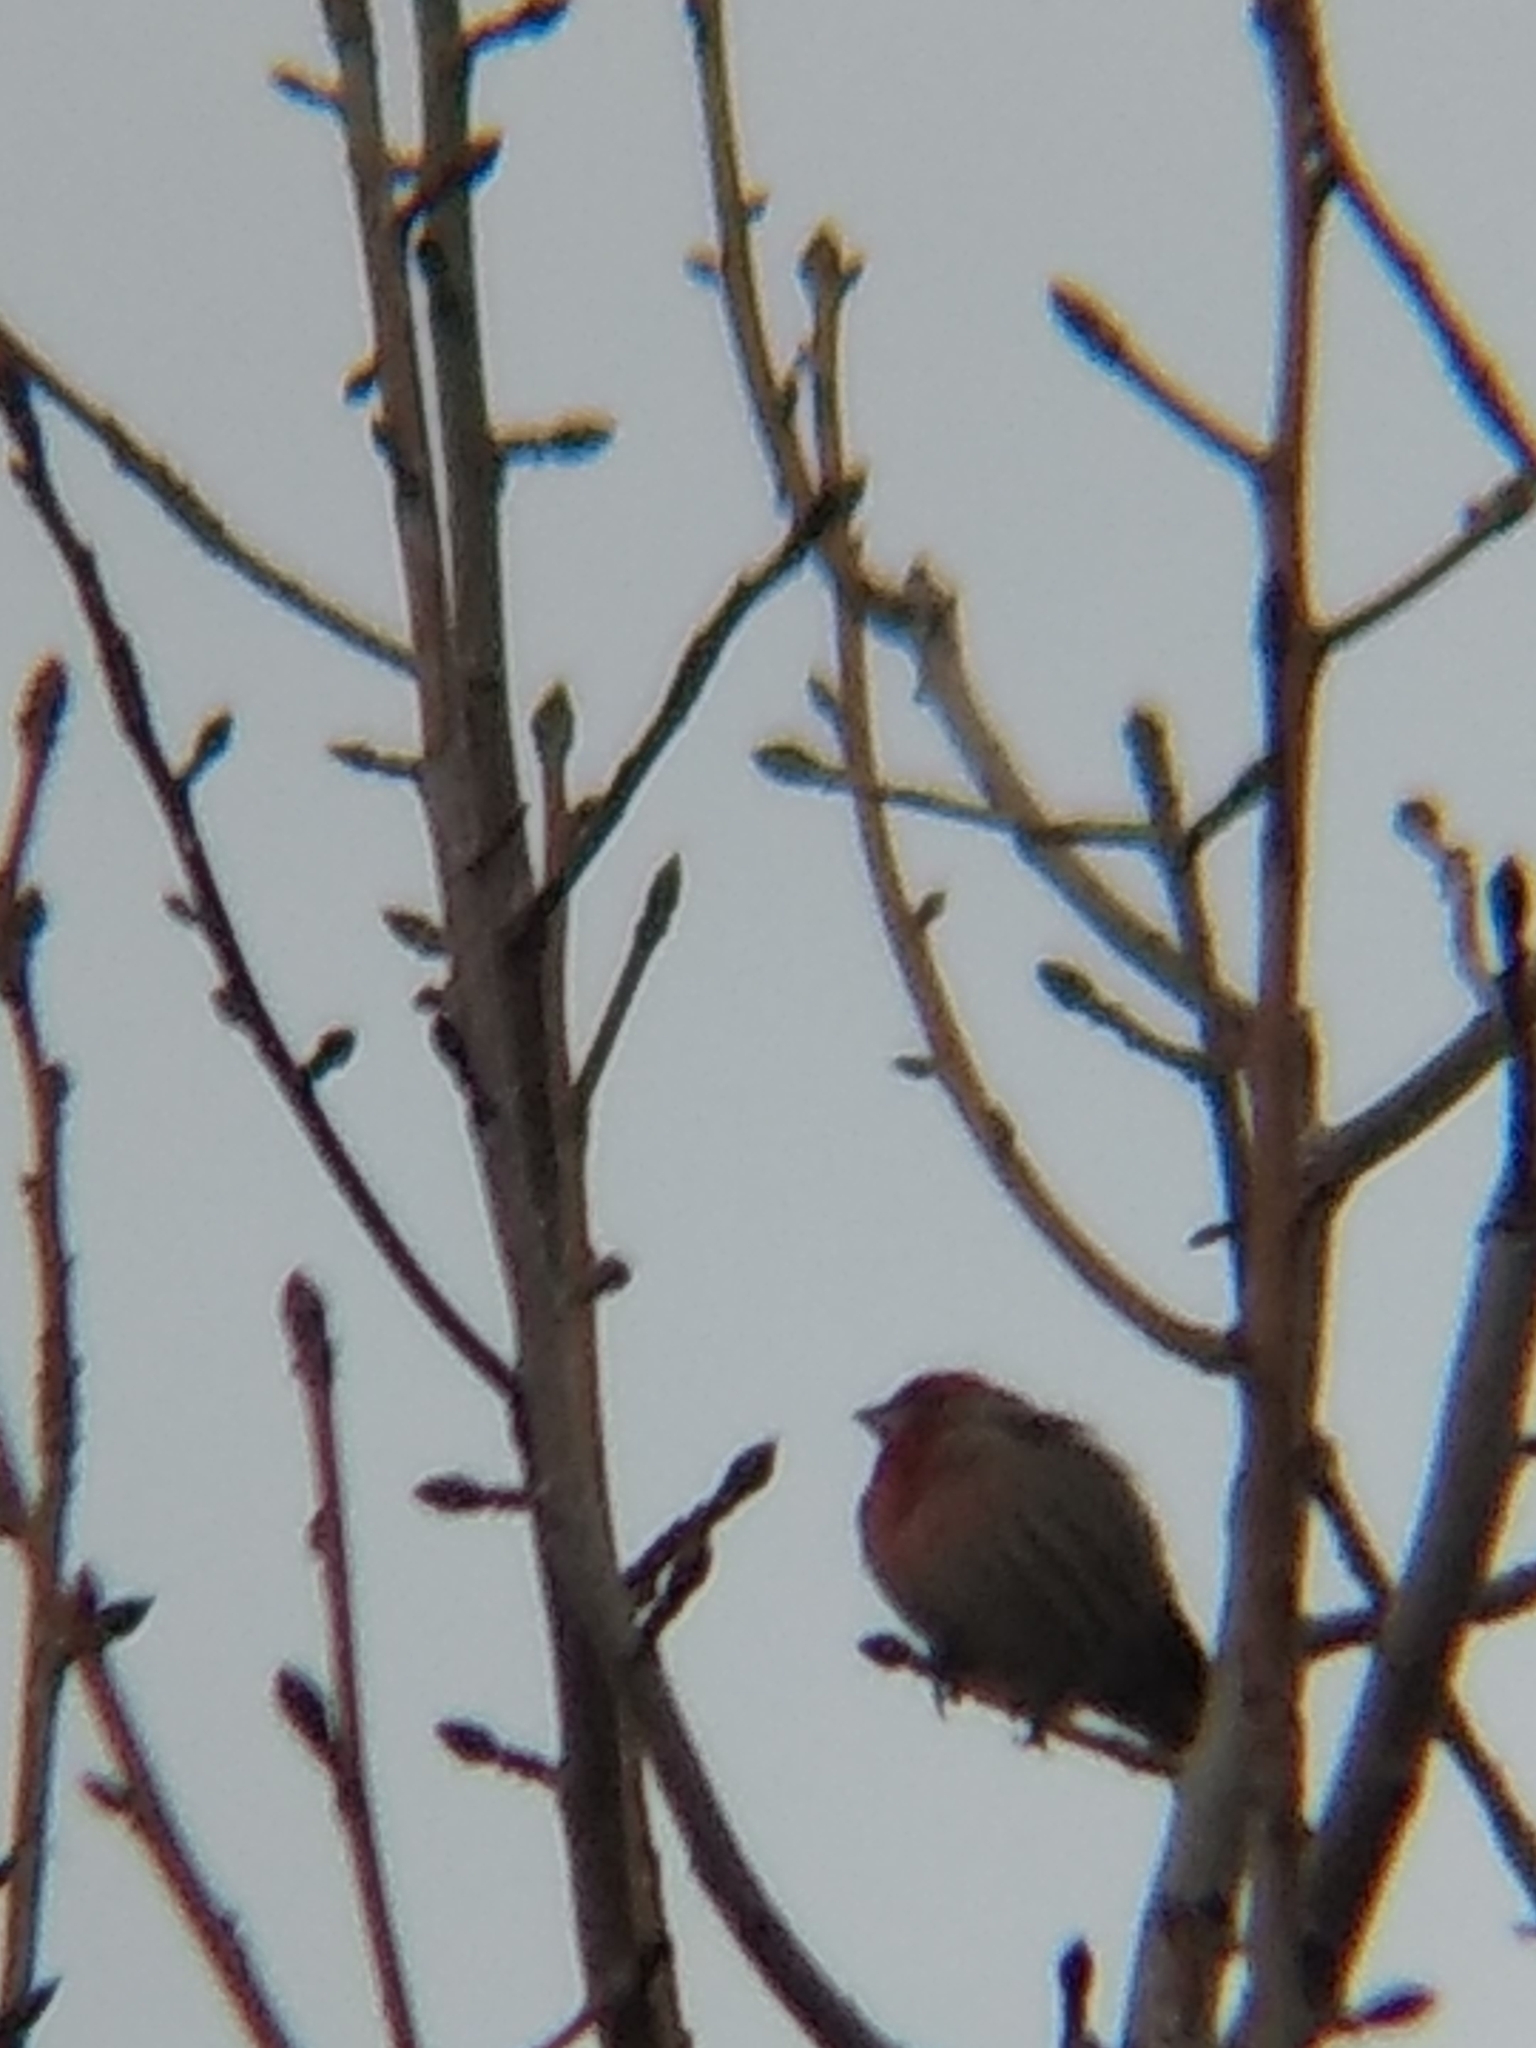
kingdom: Animalia
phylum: Chordata
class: Aves
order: Passeriformes
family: Fringillidae
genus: Haemorhous
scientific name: Haemorhous mexicanus
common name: House finch
